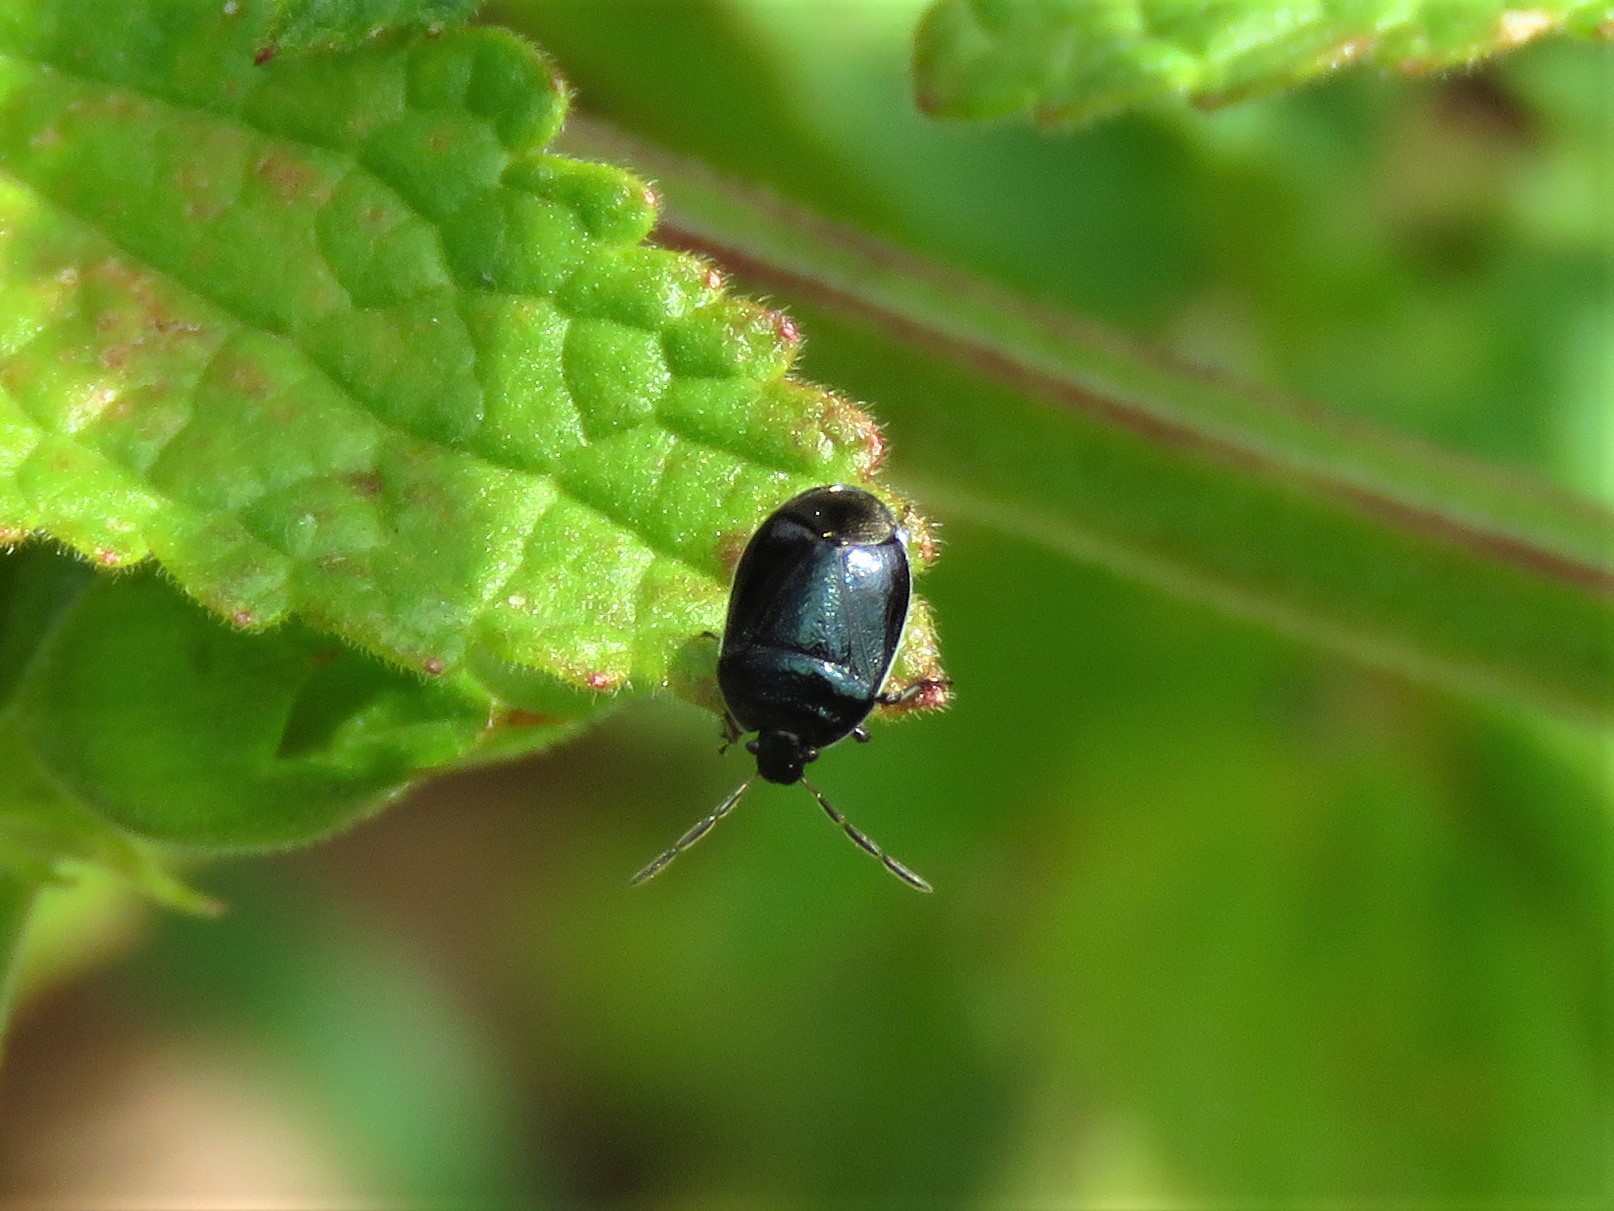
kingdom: Animalia
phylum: Arthropoda
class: Insecta
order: Hemiptera
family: Cydnidae
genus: Sehirus
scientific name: Sehirus cinctus
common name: White-margined burrower bug
